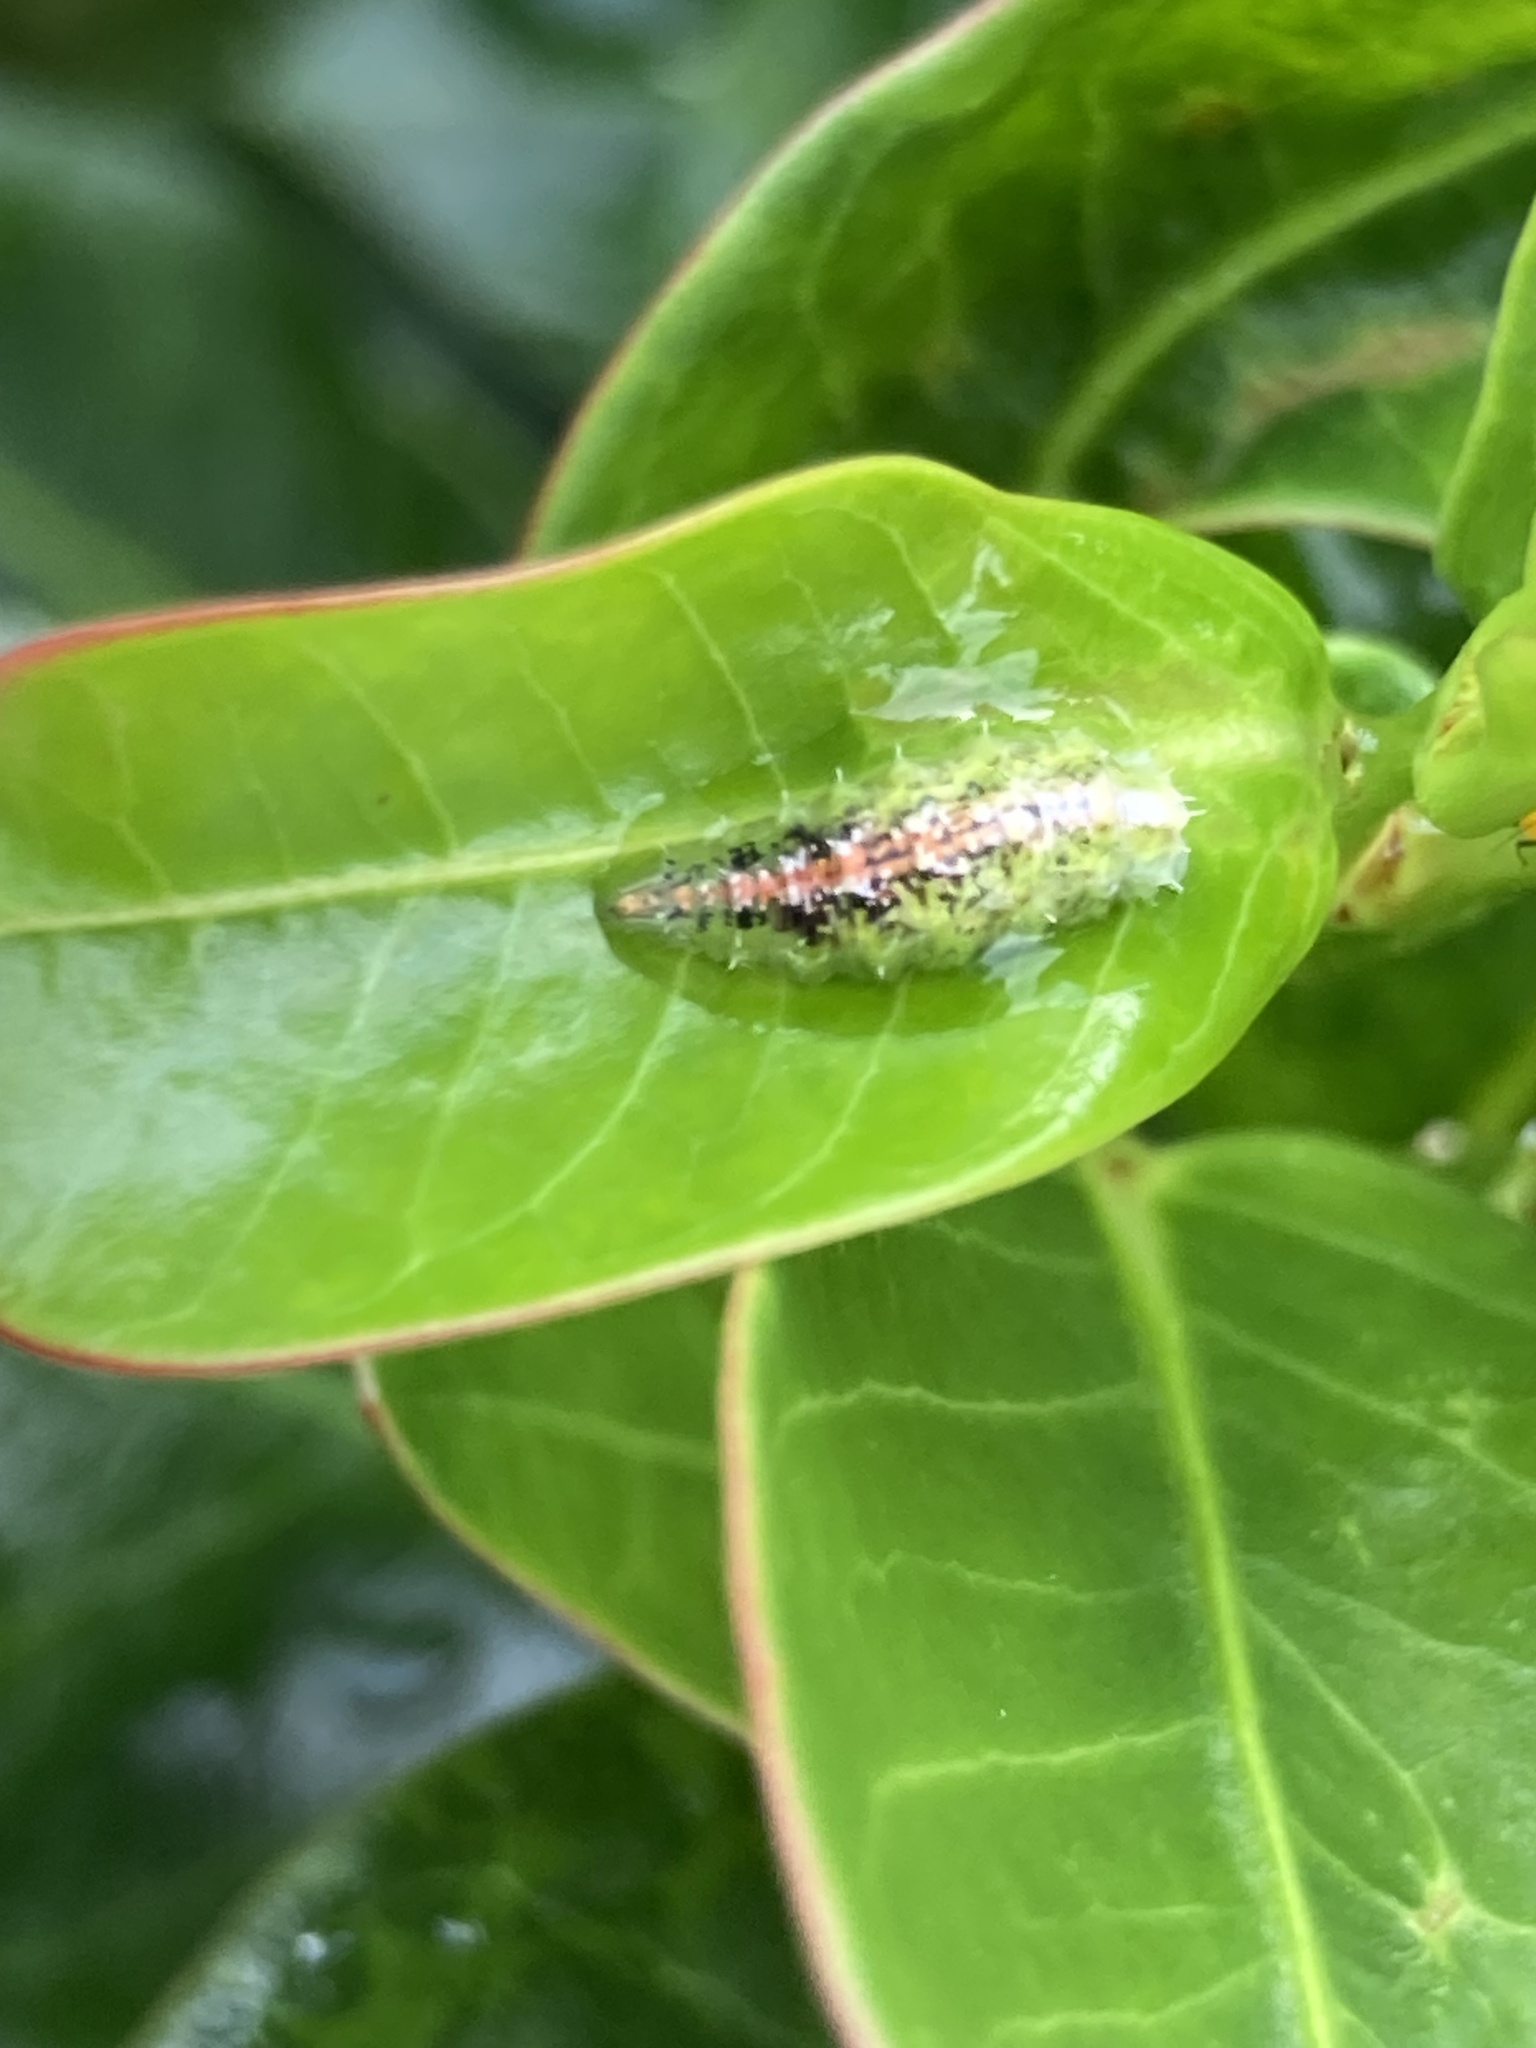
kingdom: Animalia
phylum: Arthropoda
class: Insecta
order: Diptera
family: Syrphidae
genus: Dioprosopa
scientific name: Dioprosopa clavatus
